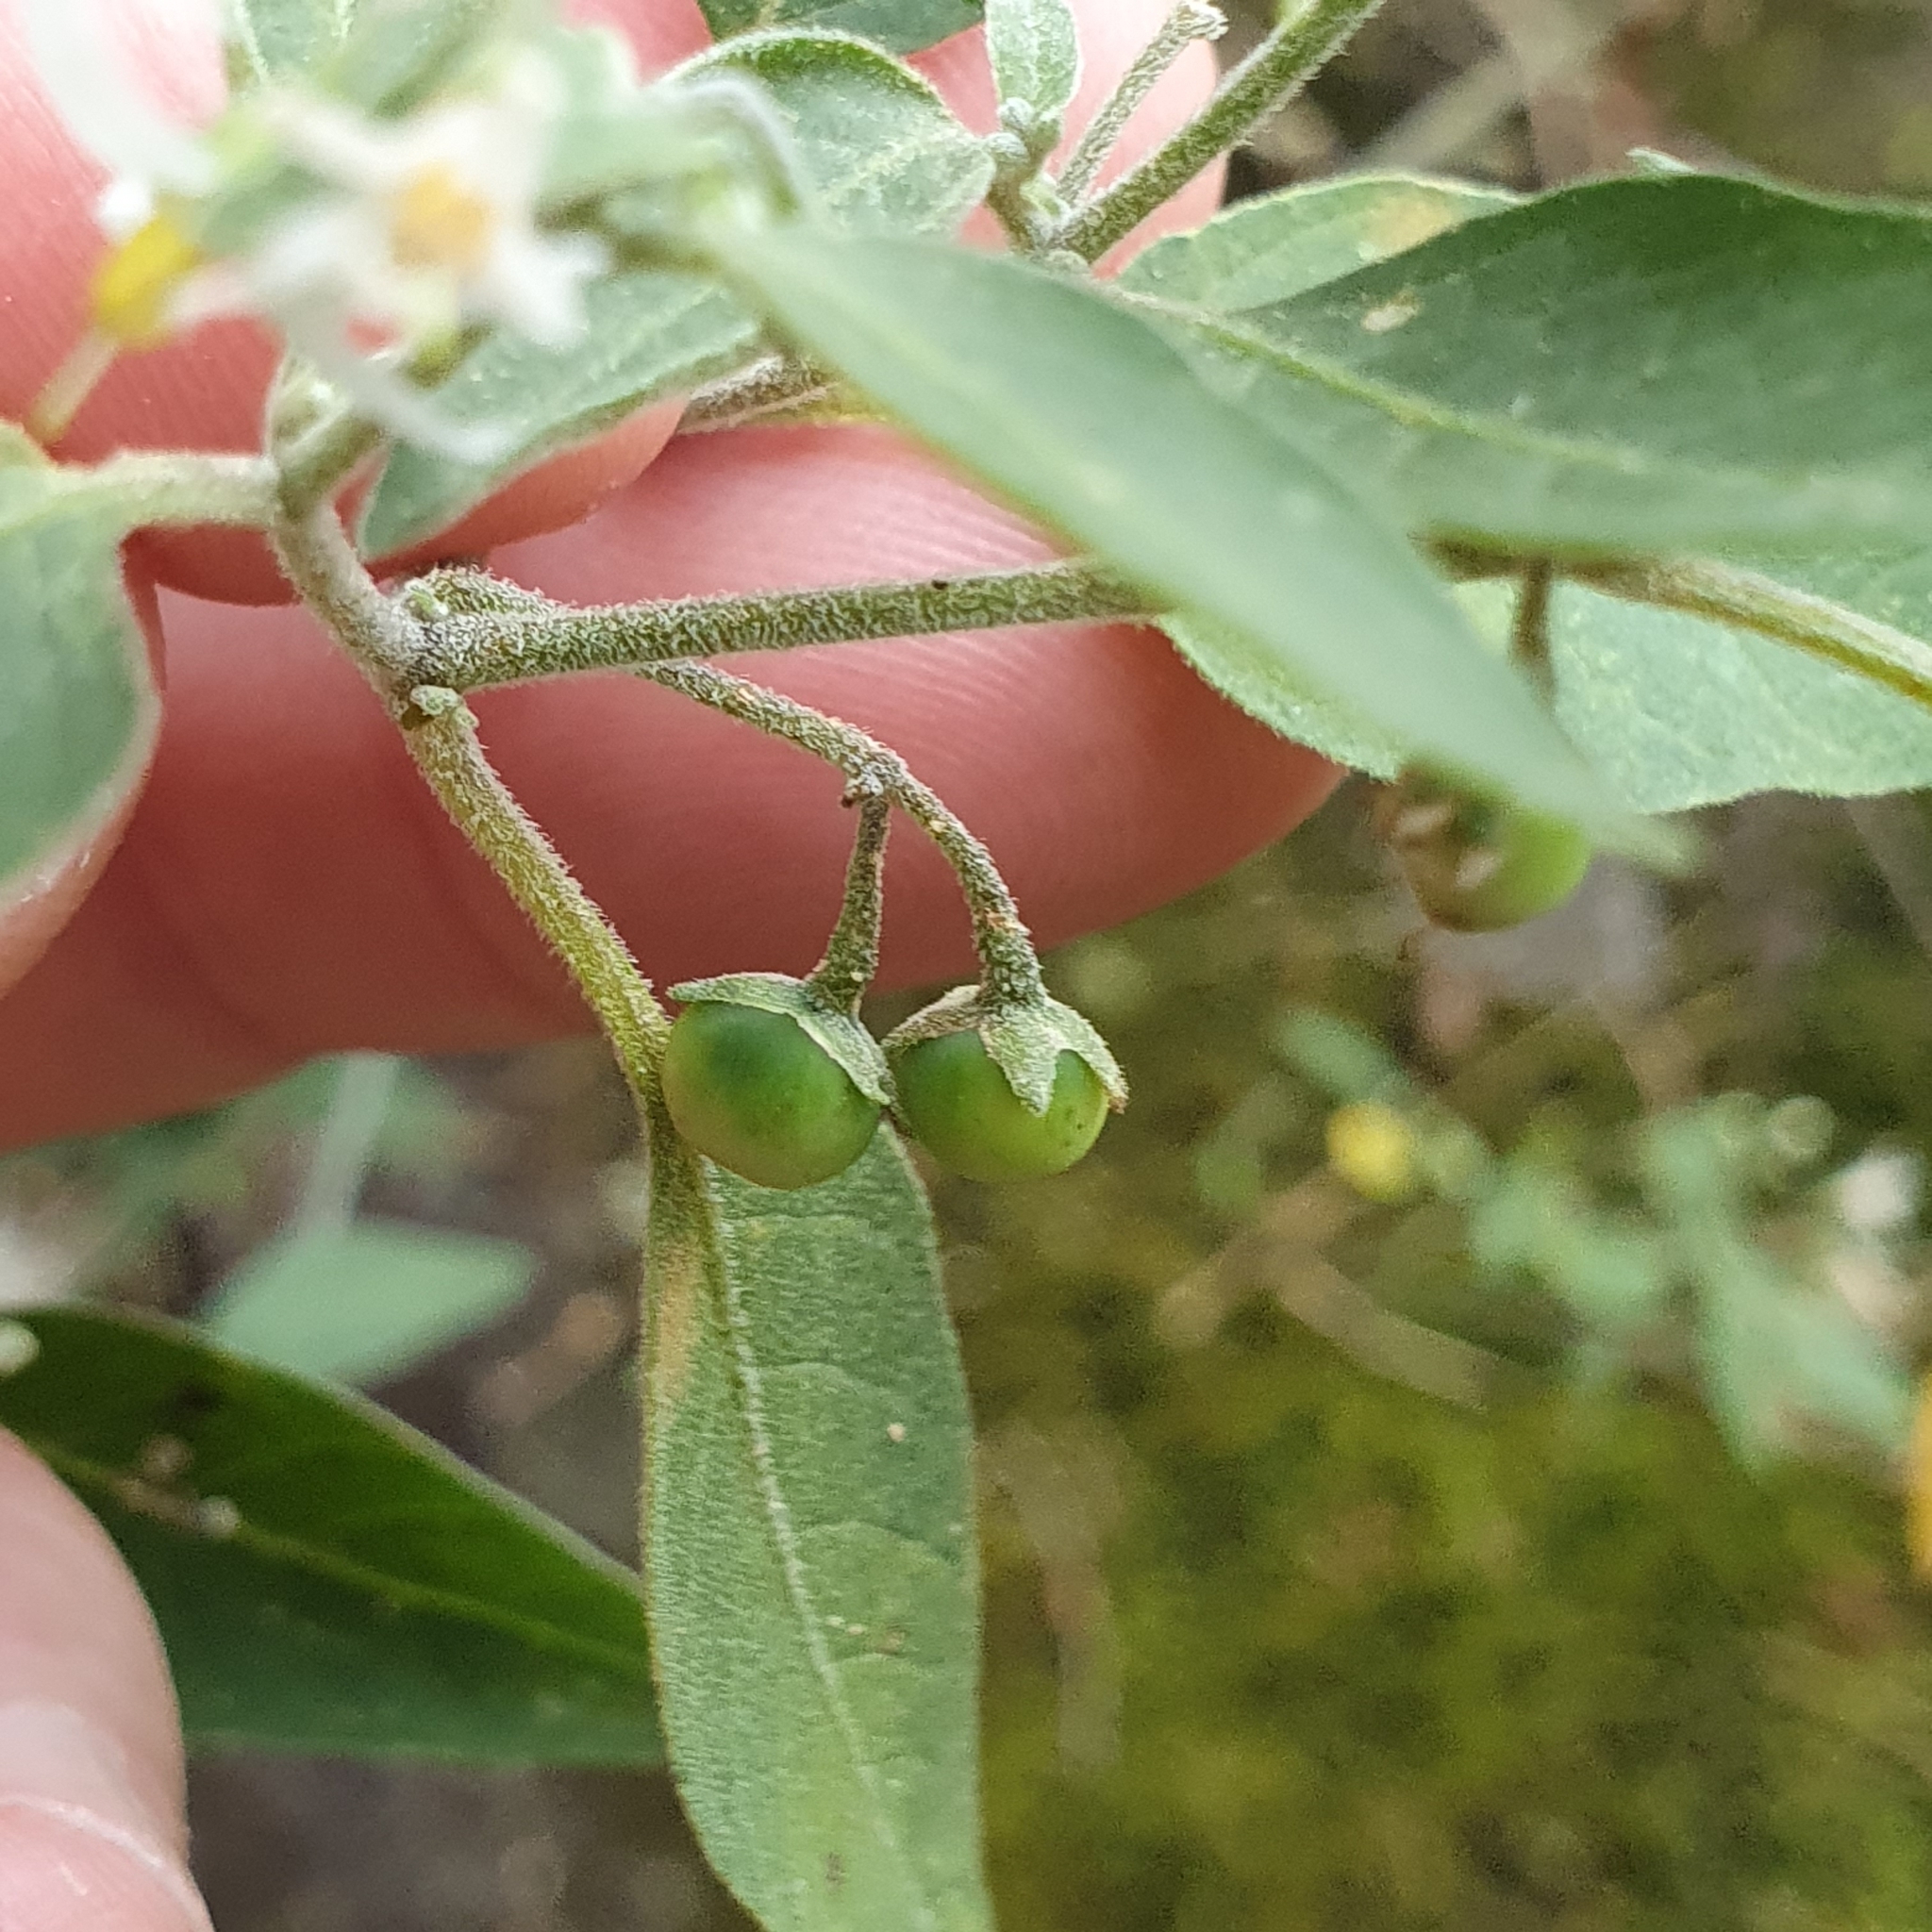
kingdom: Plantae
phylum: Tracheophyta
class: Magnoliopsida
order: Solanales
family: Solanaceae
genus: Solanum
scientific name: Solanum chenopodioides
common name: Tall nightshade
